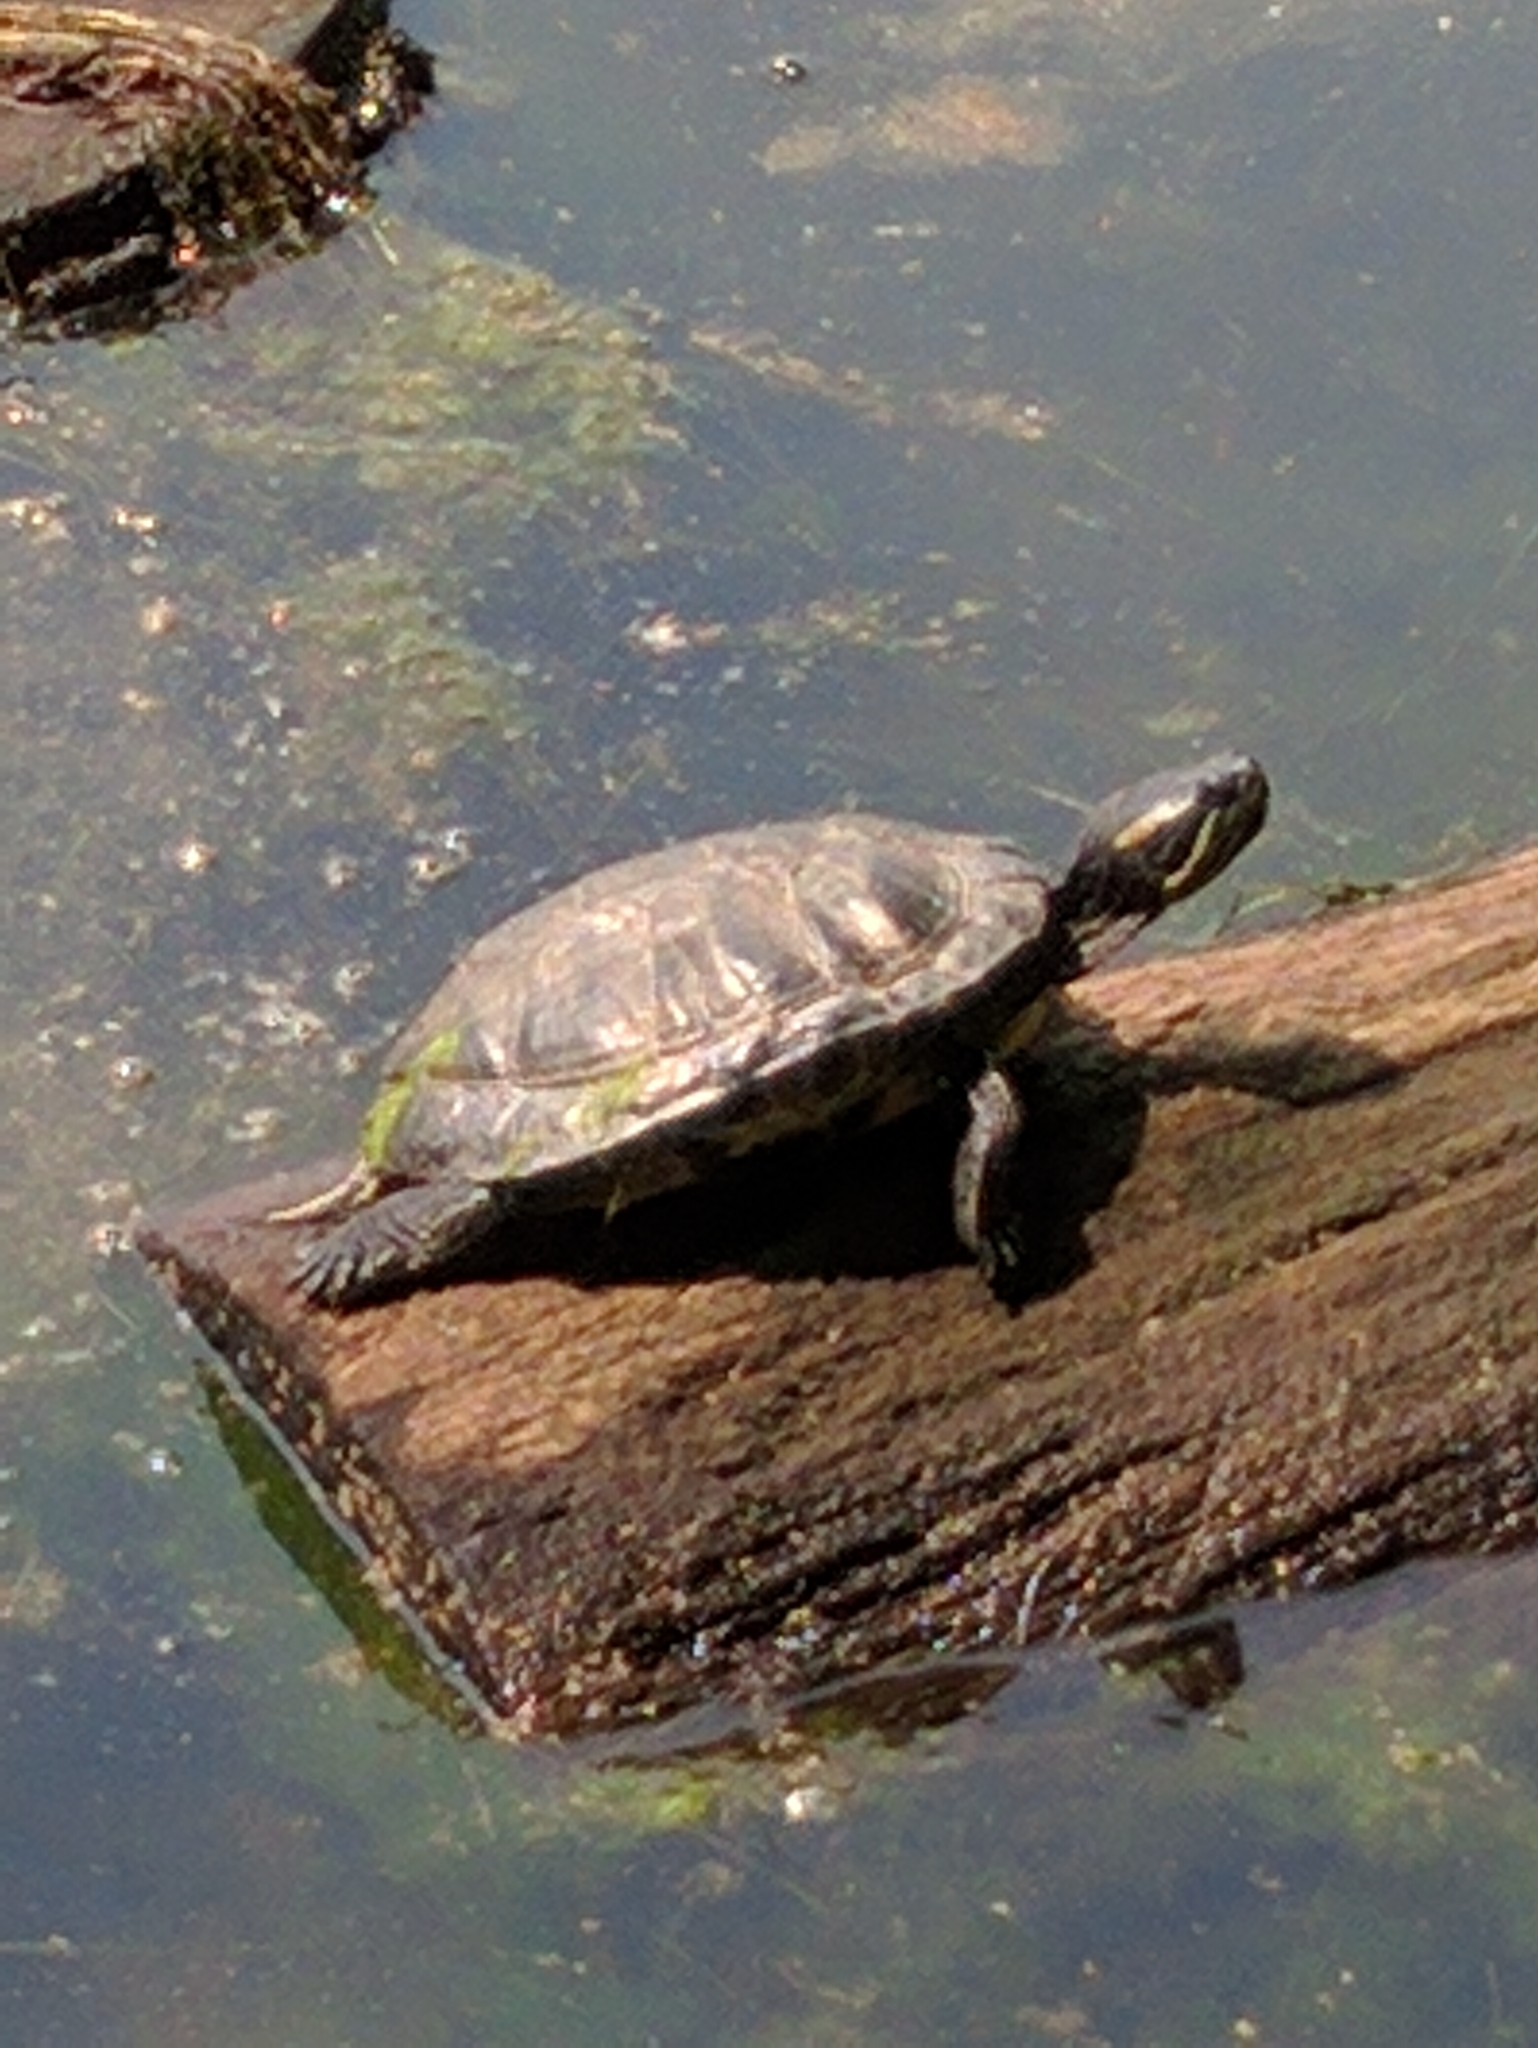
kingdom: Animalia
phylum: Chordata
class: Testudines
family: Emydidae
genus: Trachemys
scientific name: Trachemys scripta
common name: Slider
